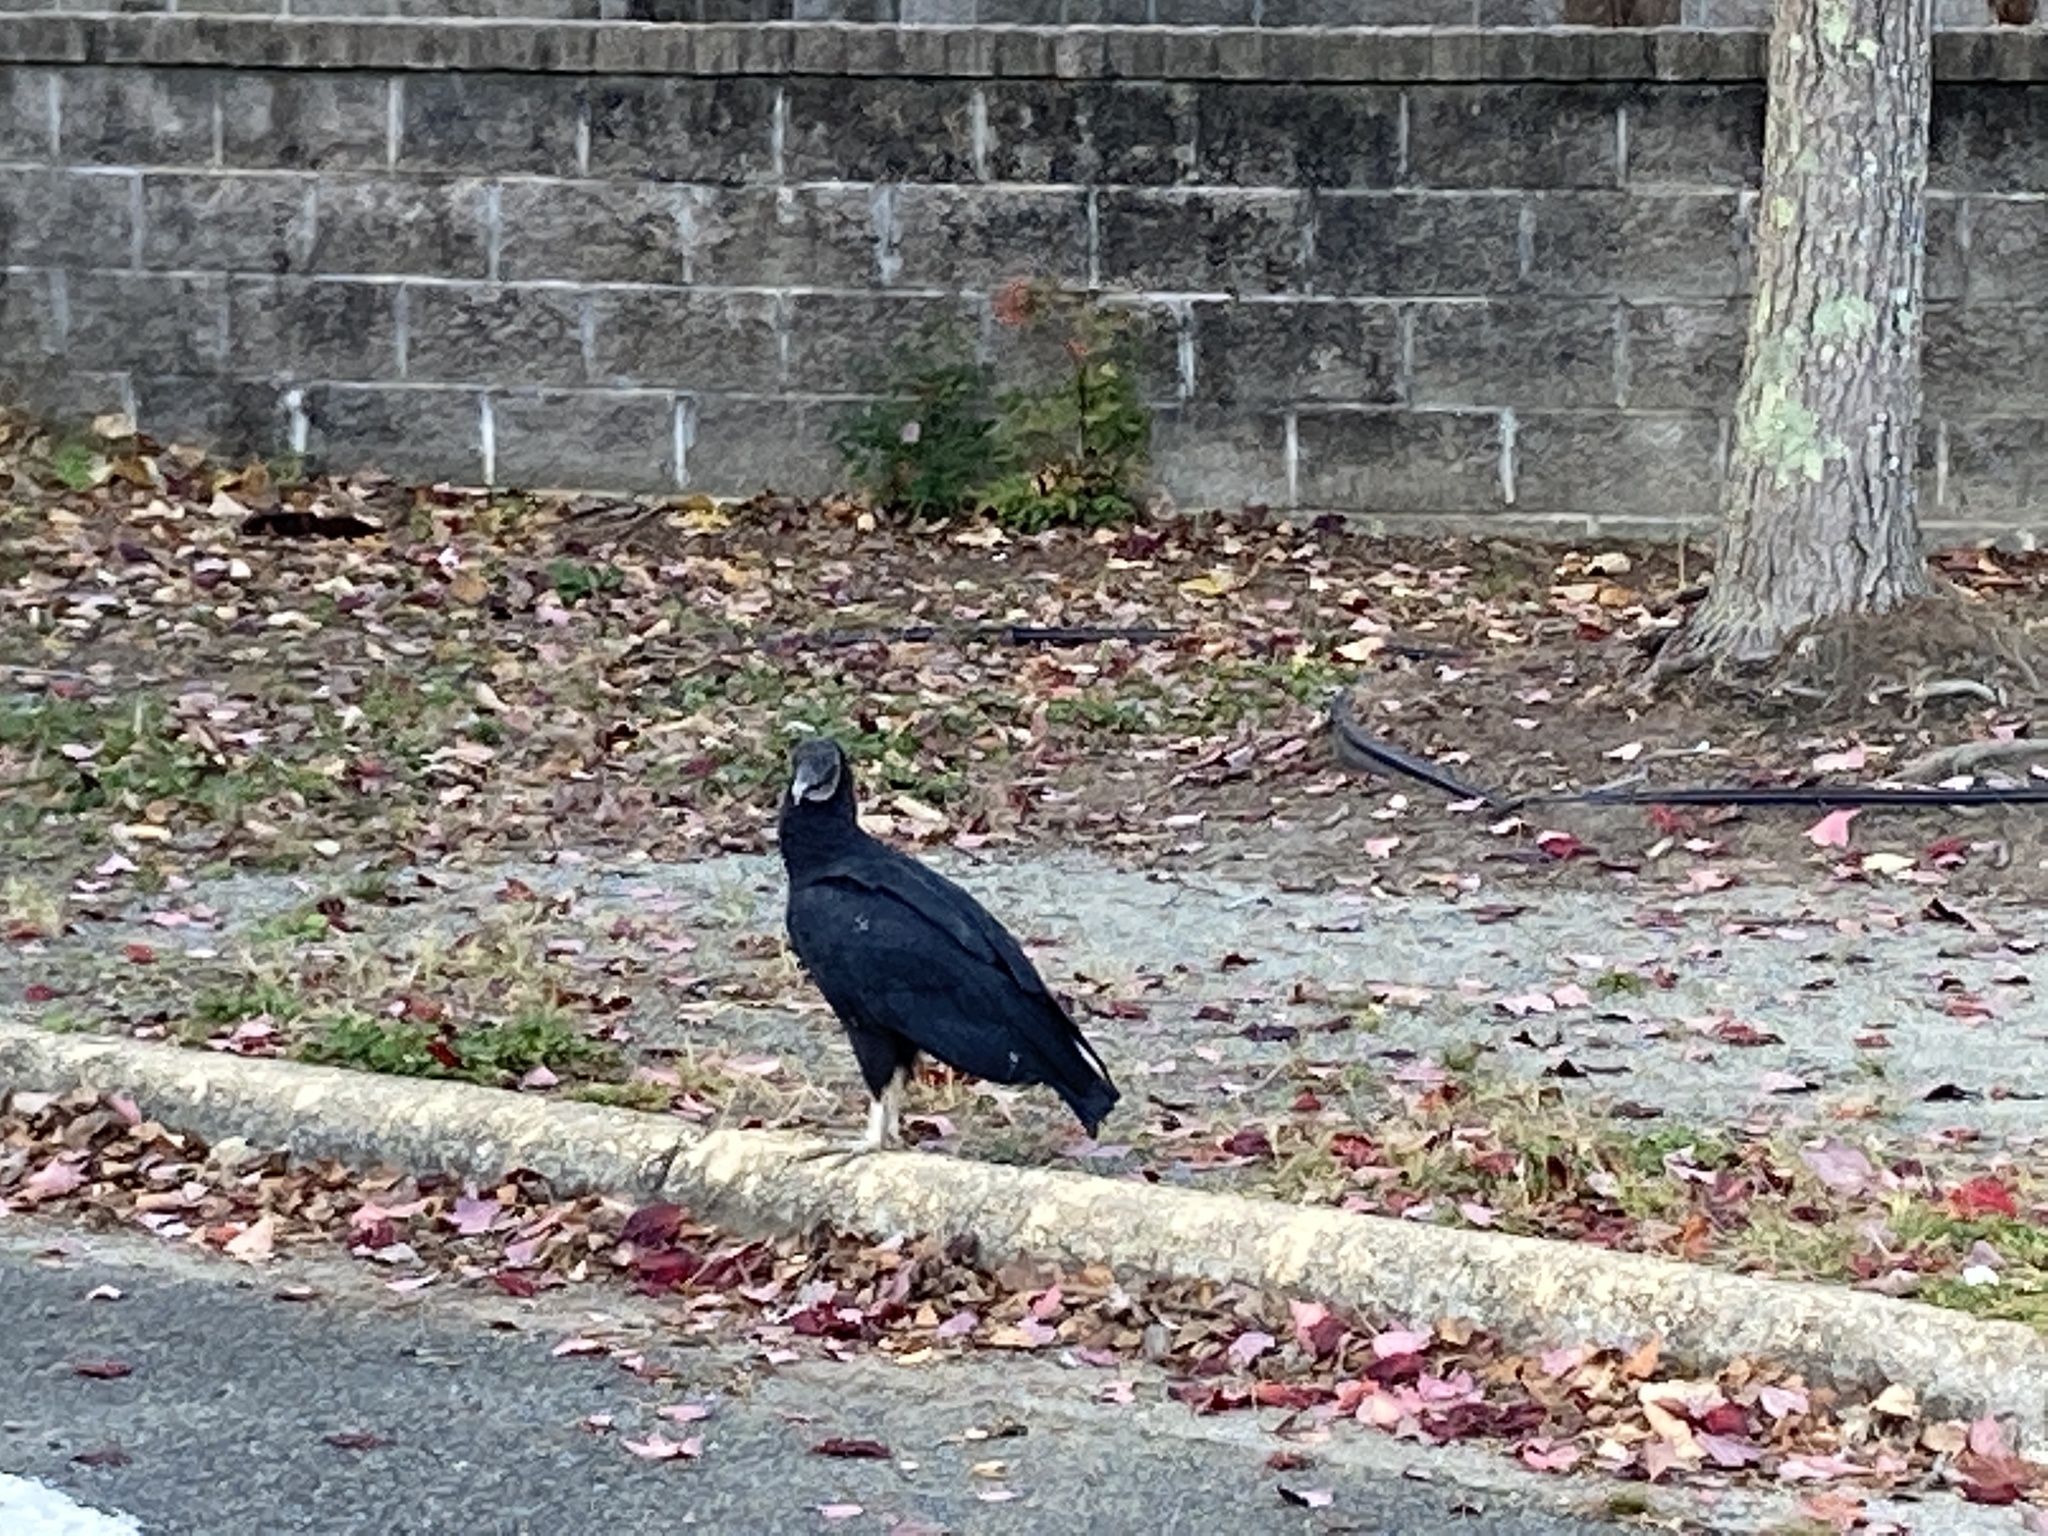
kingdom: Animalia
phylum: Chordata
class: Aves
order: Accipitriformes
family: Cathartidae
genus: Coragyps
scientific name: Coragyps atratus
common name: Black vulture
